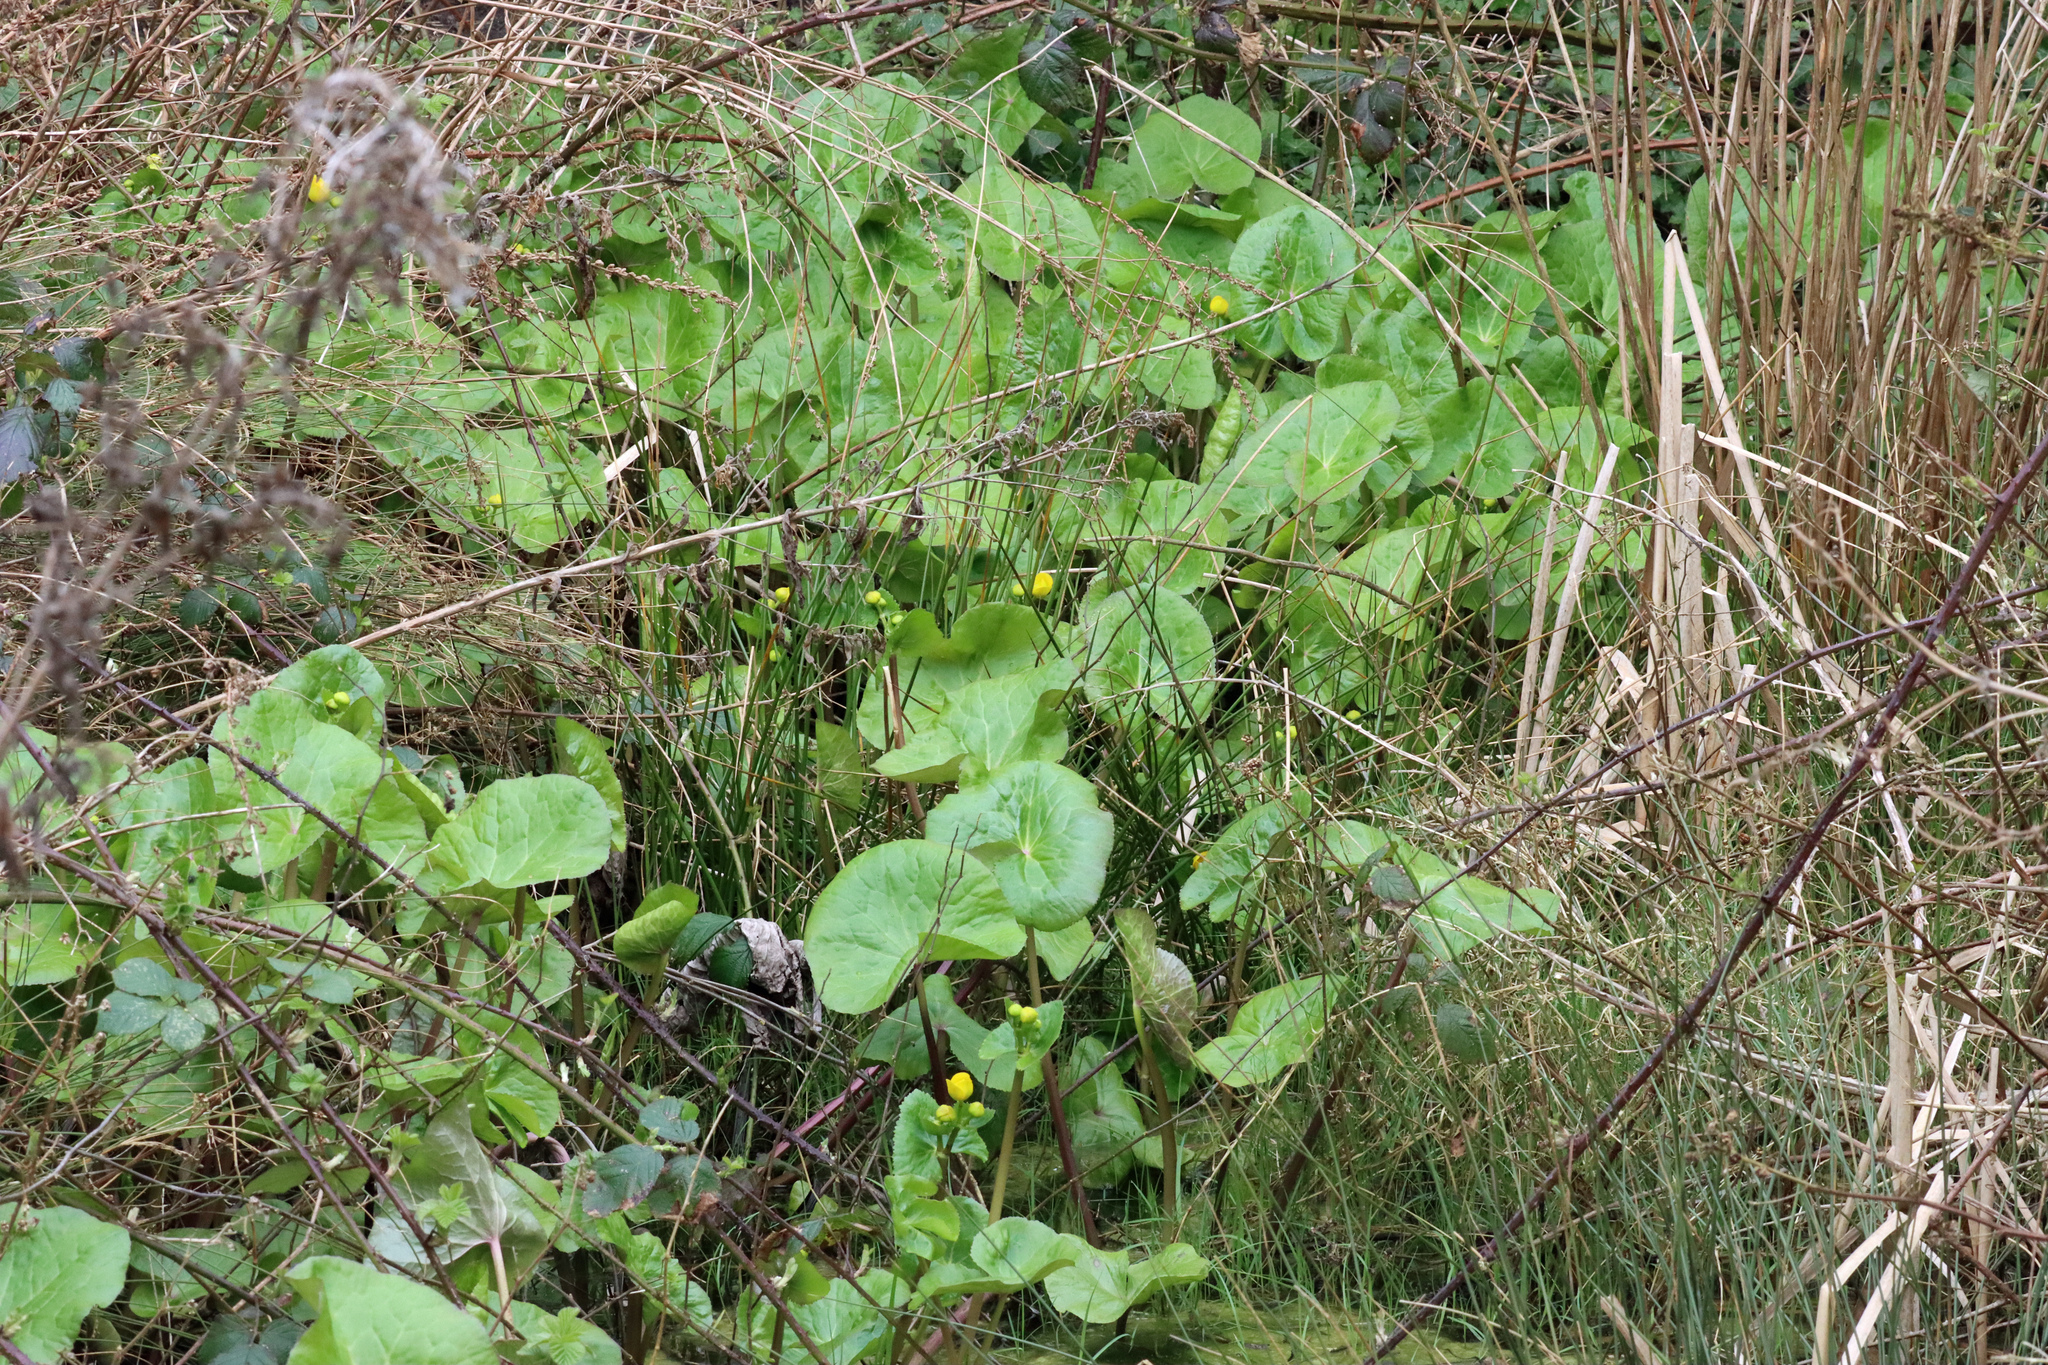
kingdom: Plantae
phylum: Tracheophyta
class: Magnoliopsida
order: Ranunculales
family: Ranunculaceae
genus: Caltha
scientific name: Caltha palustris
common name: Marsh marigold
